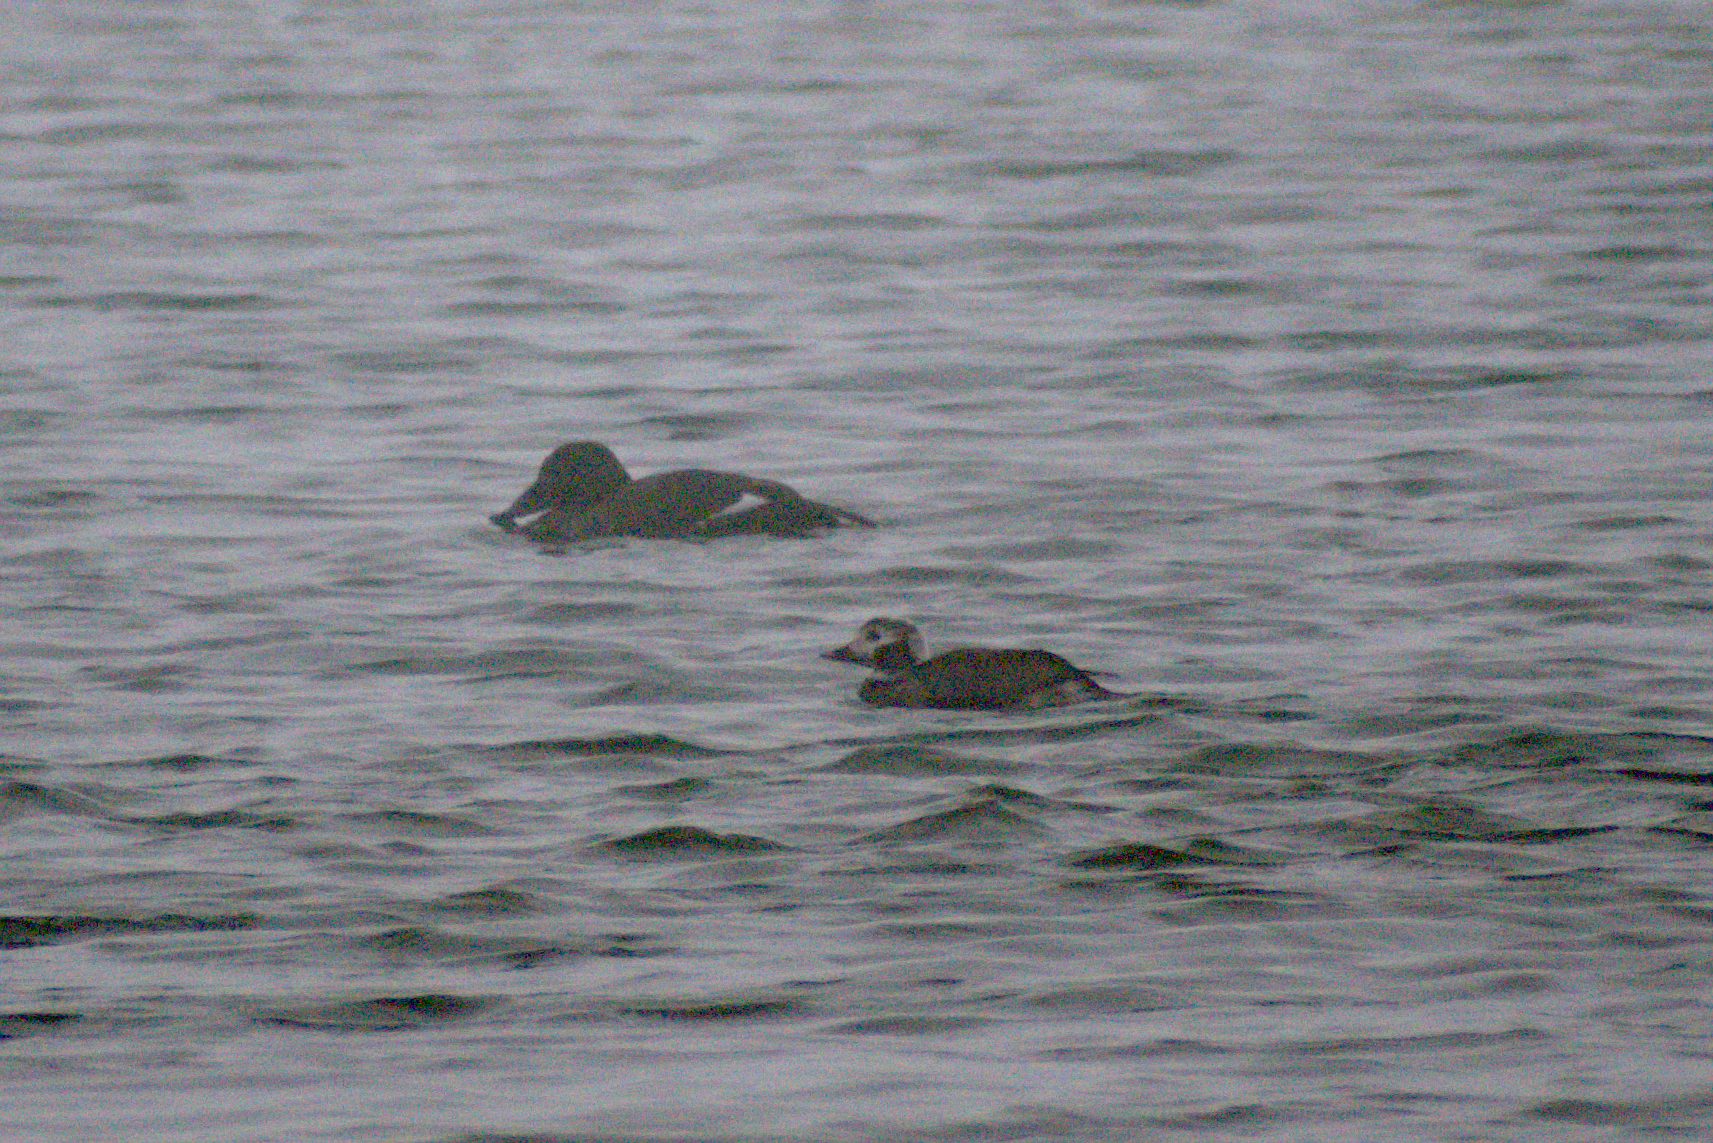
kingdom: Animalia
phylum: Chordata
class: Aves
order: Anseriformes
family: Anatidae
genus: Melanitta
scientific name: Melanitta deglandi
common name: White-winged scoter
